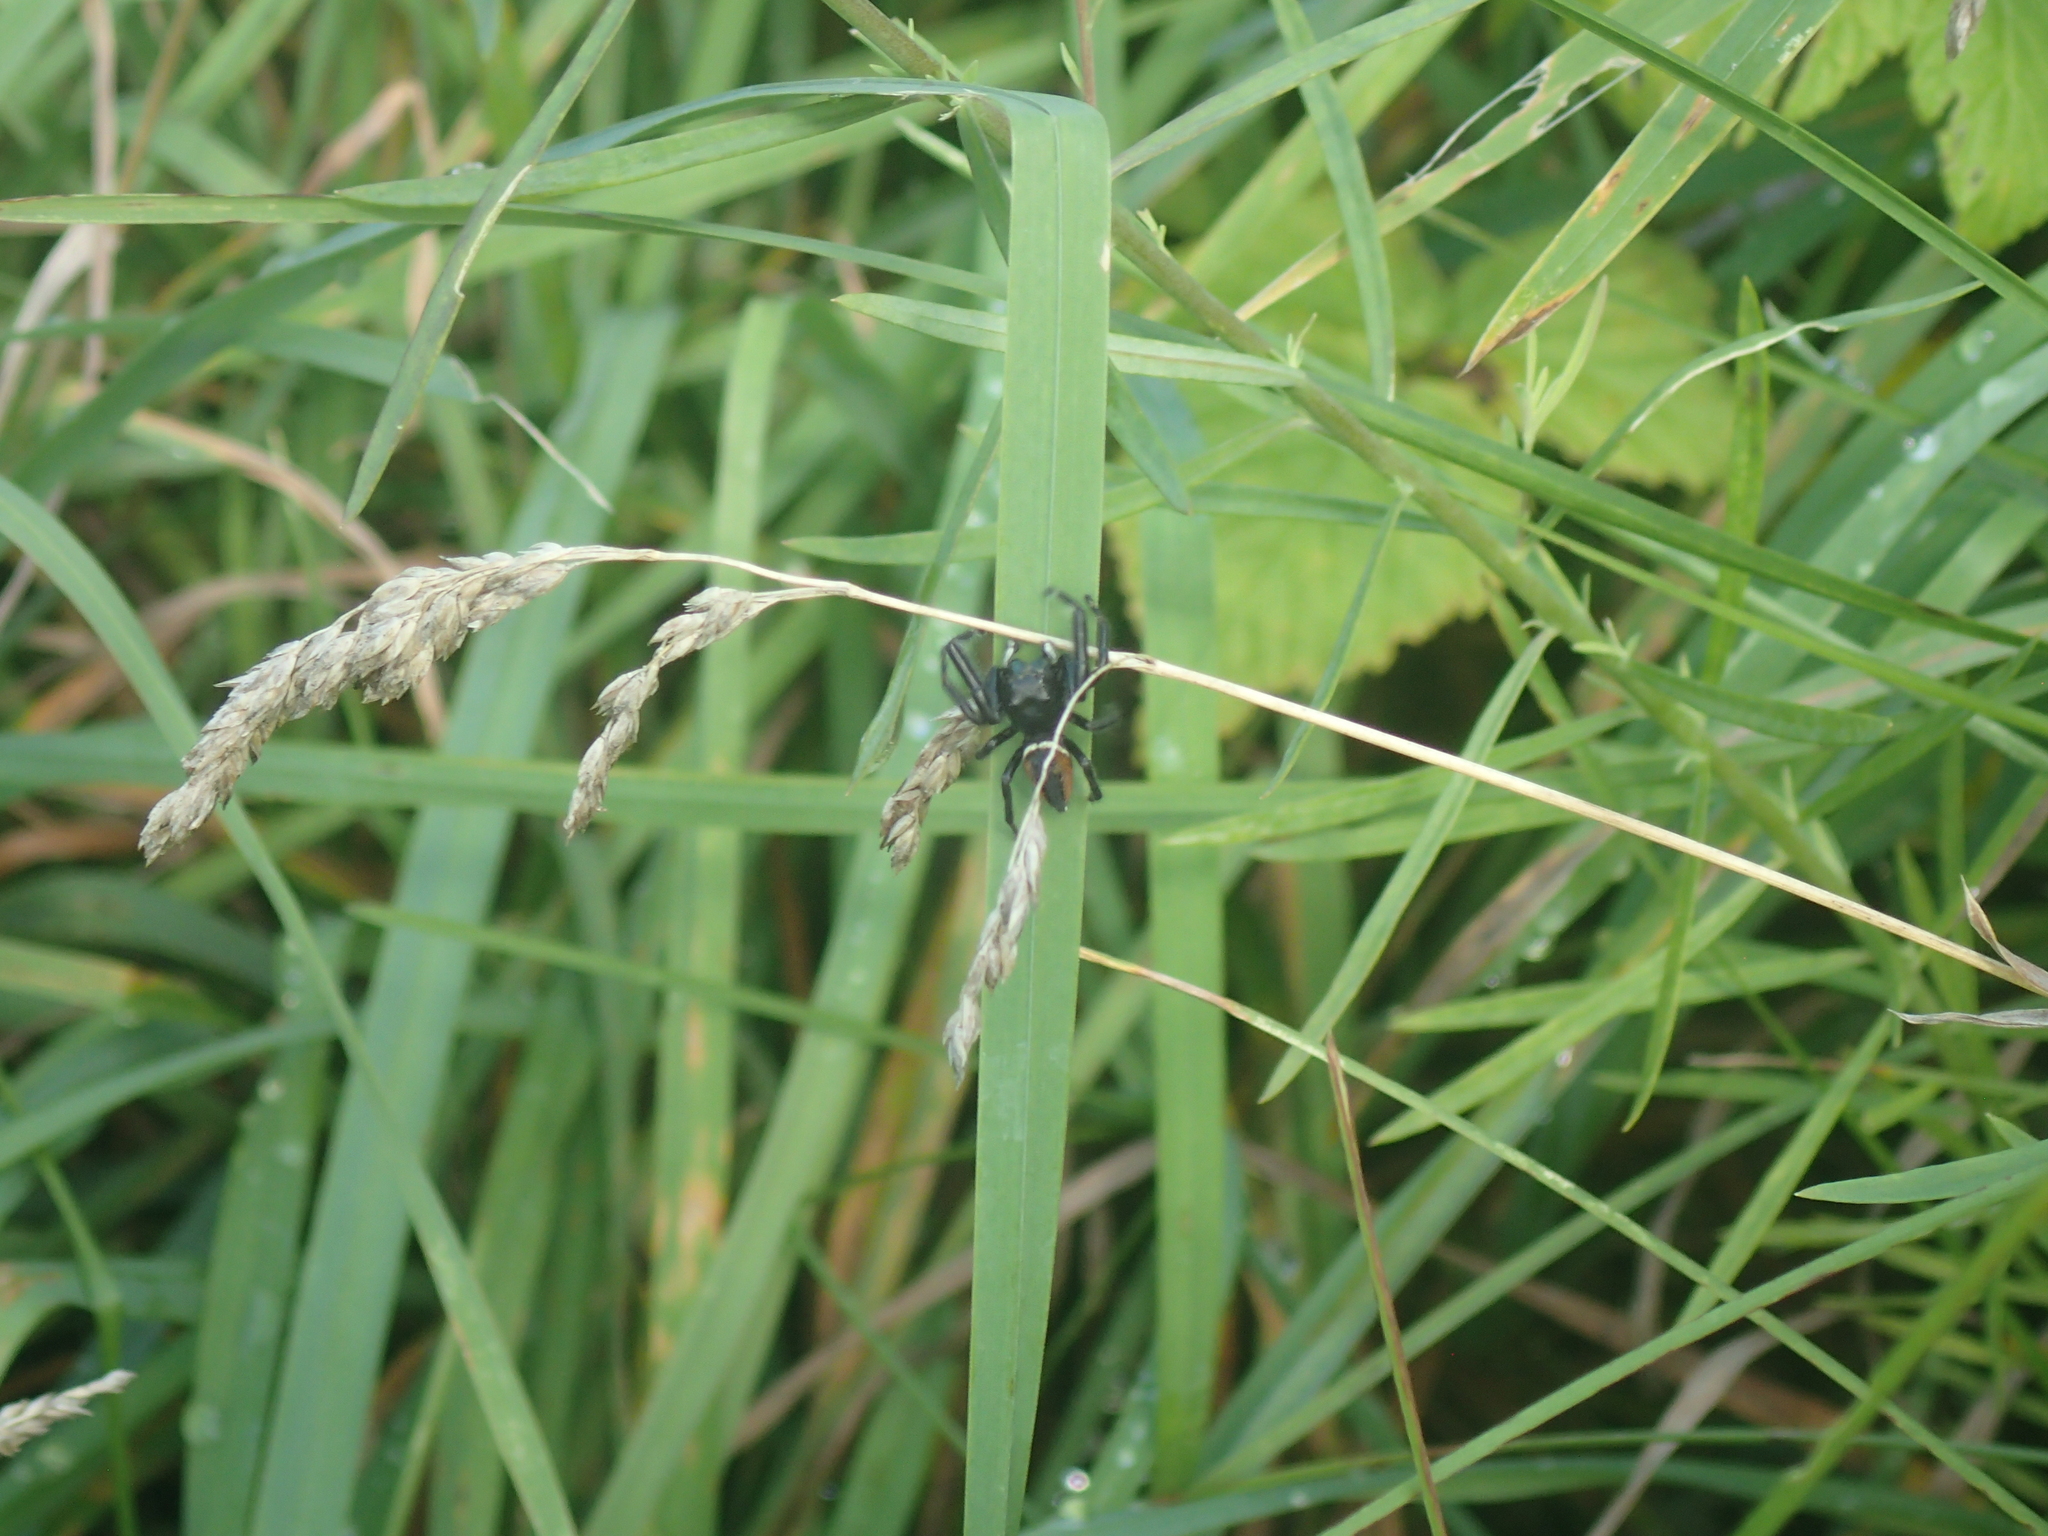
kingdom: Animalia
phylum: Arthropoda
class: Arachnida
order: Araneae
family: Salticidae
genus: Phidippus
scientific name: Phidippus clarus
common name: Brilliant jumping spider
